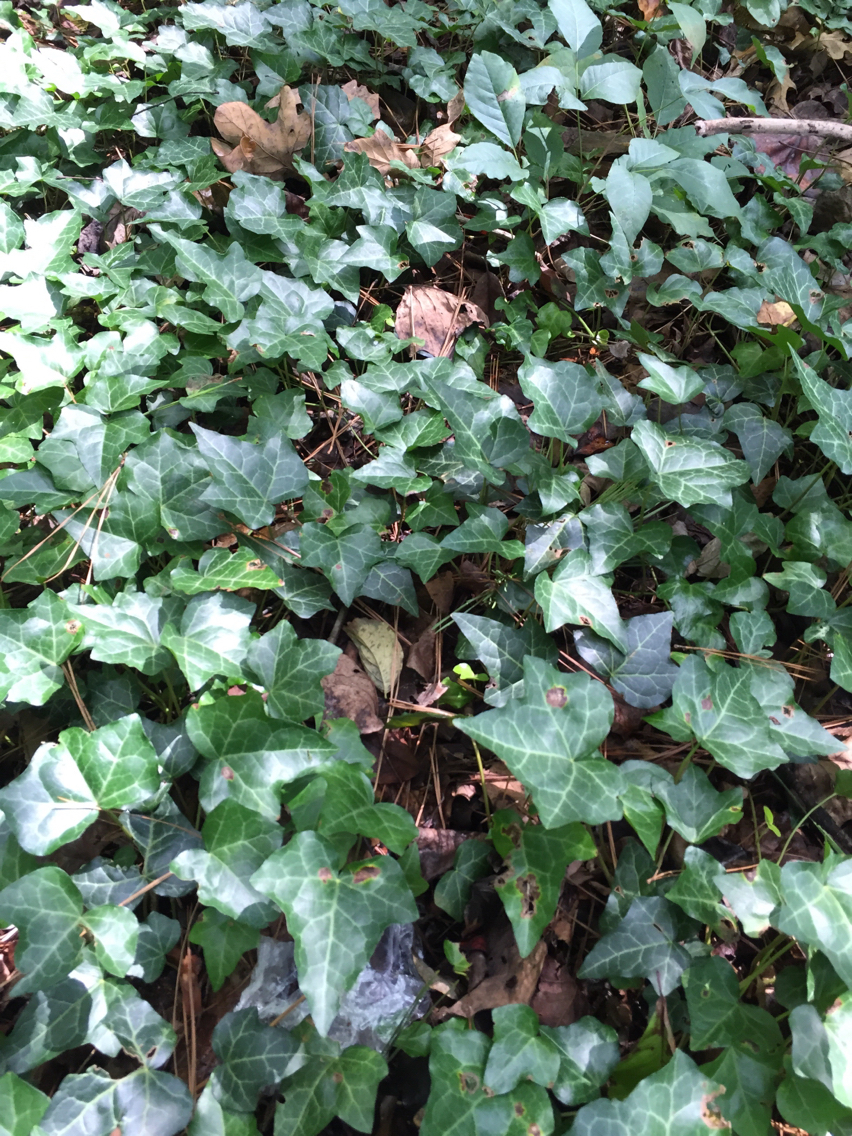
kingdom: Plantae
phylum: Tracheophyta
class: Magnoliopsida
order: Apiales
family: Araliaceae
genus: Hedera
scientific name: Hedera helix
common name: Ivy
